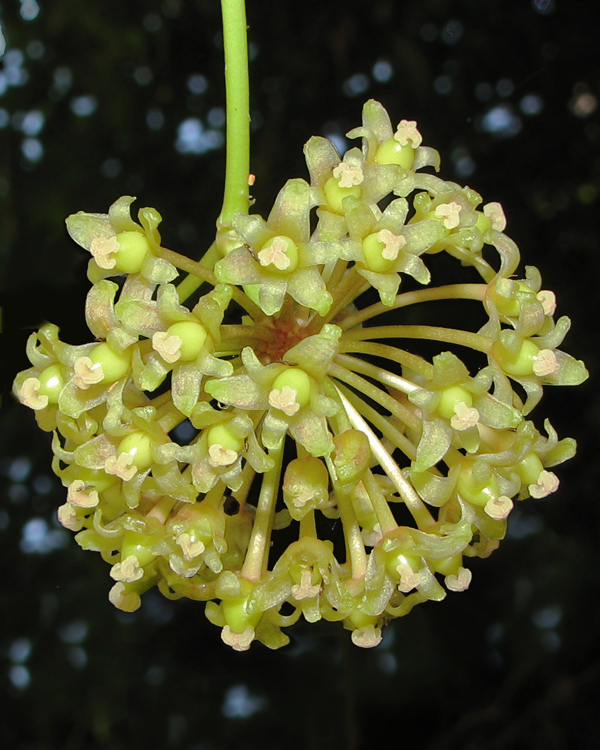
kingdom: Plantae
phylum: Tracheophyta
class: Liliopsida
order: Liliales
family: Smilacaceae
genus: Smilax
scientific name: Smilax australis
